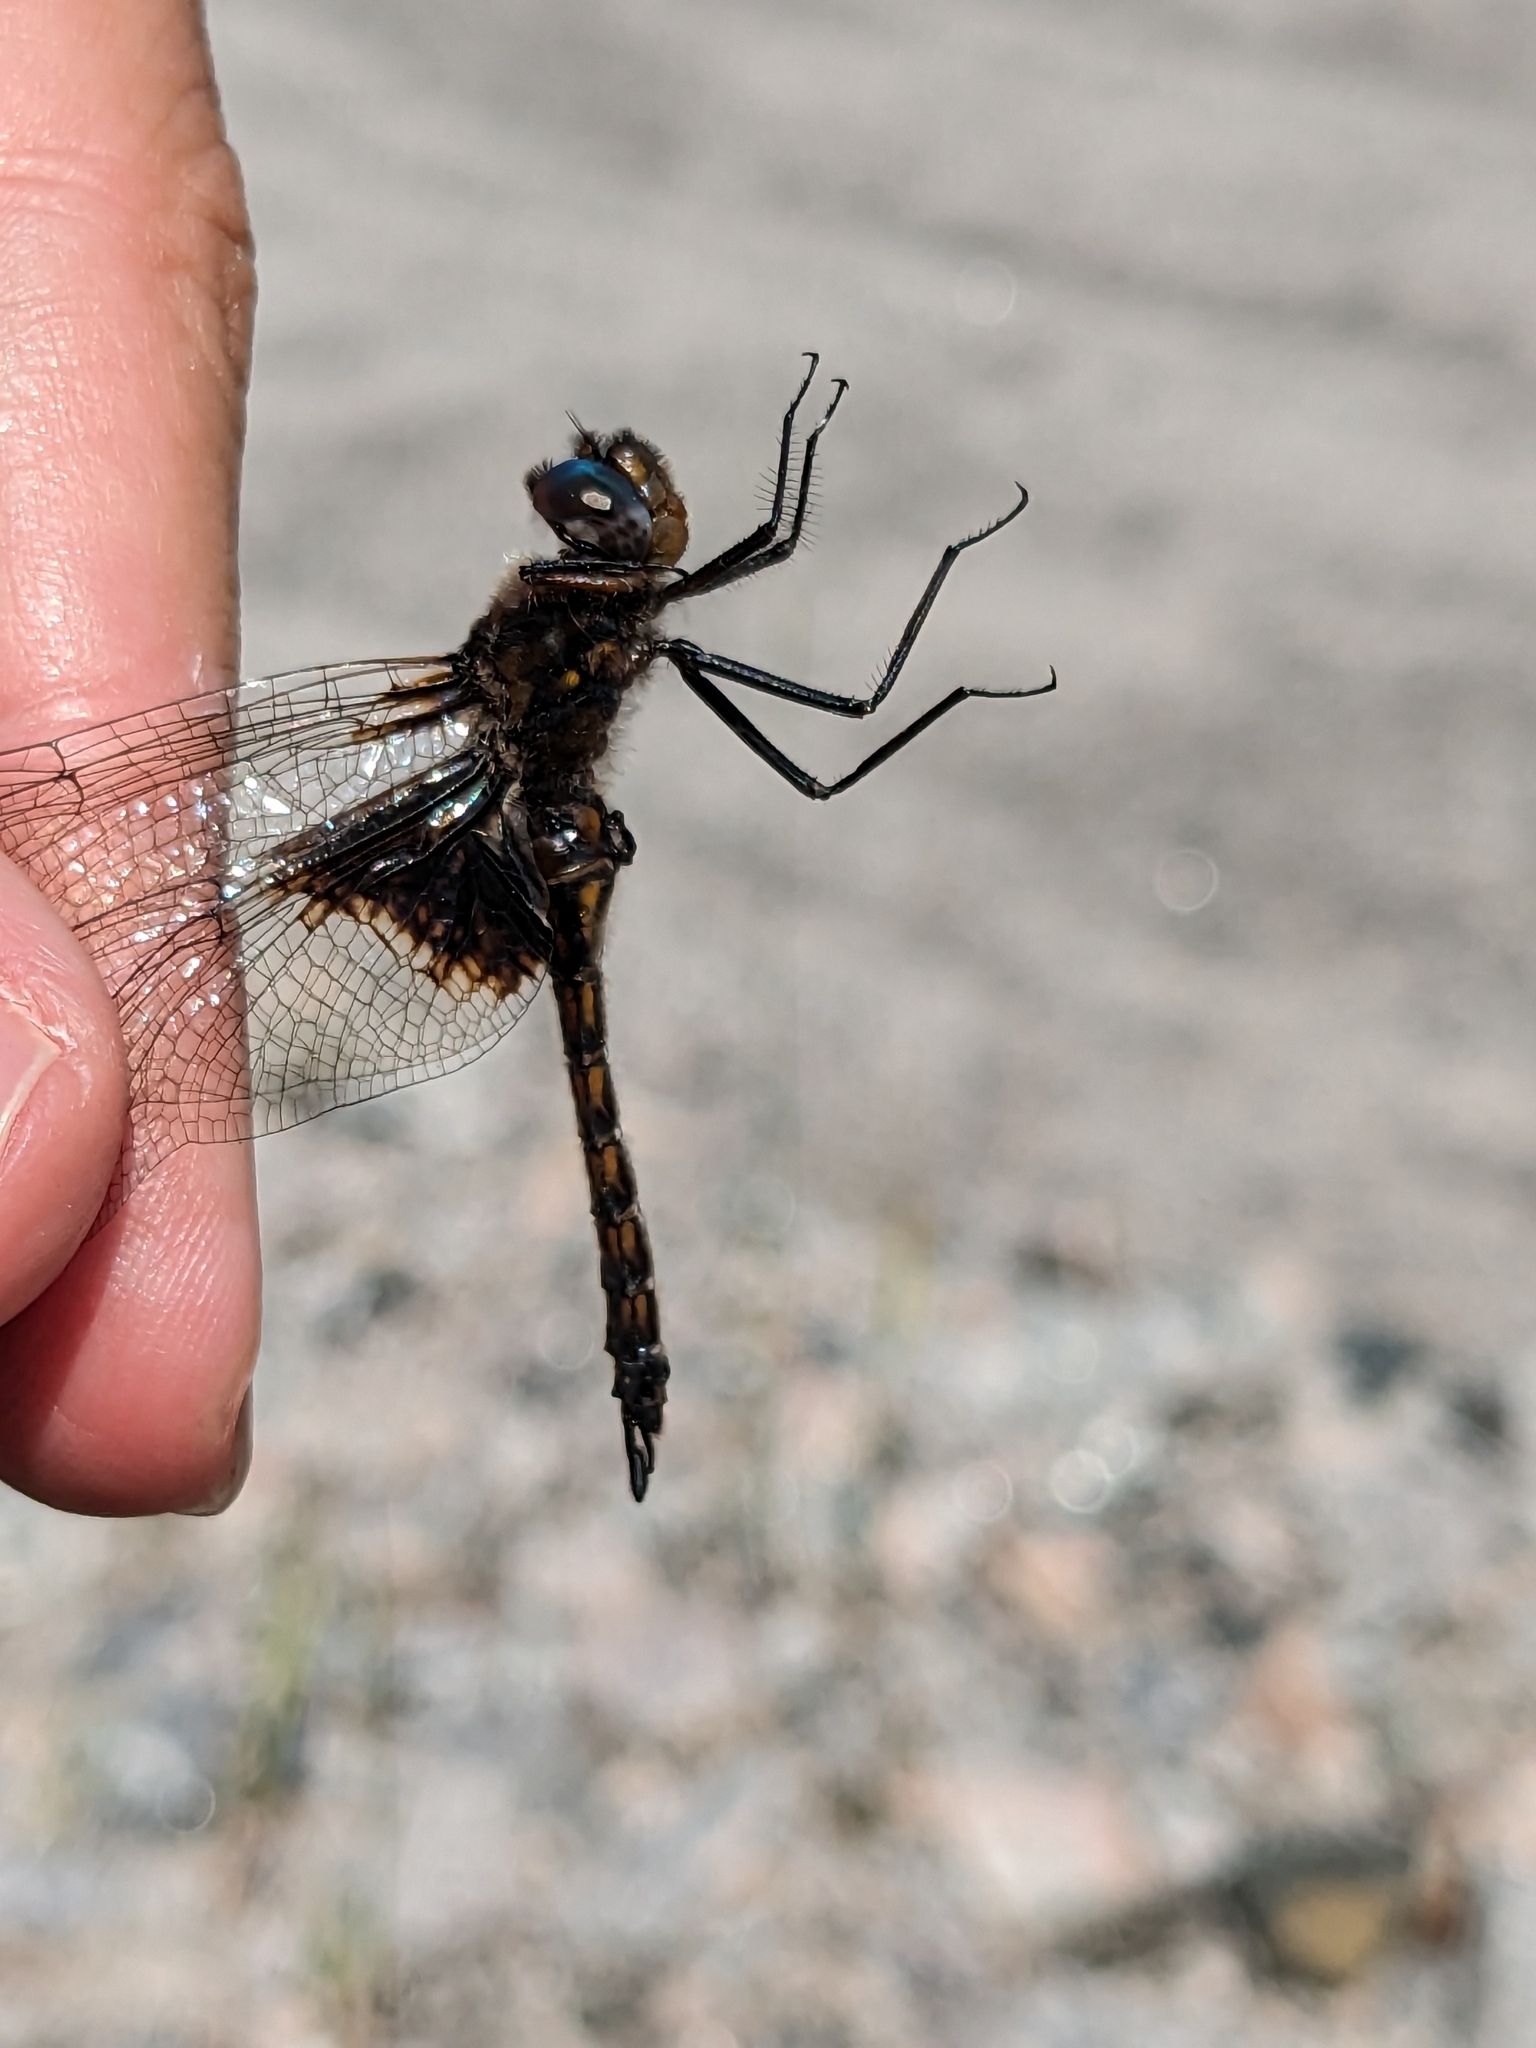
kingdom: Animalia
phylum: Arthropoda
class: Insecta
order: Odonata
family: Corduliidae
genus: Epitheca
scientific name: Epitheca cynosura
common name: Common baskettail
